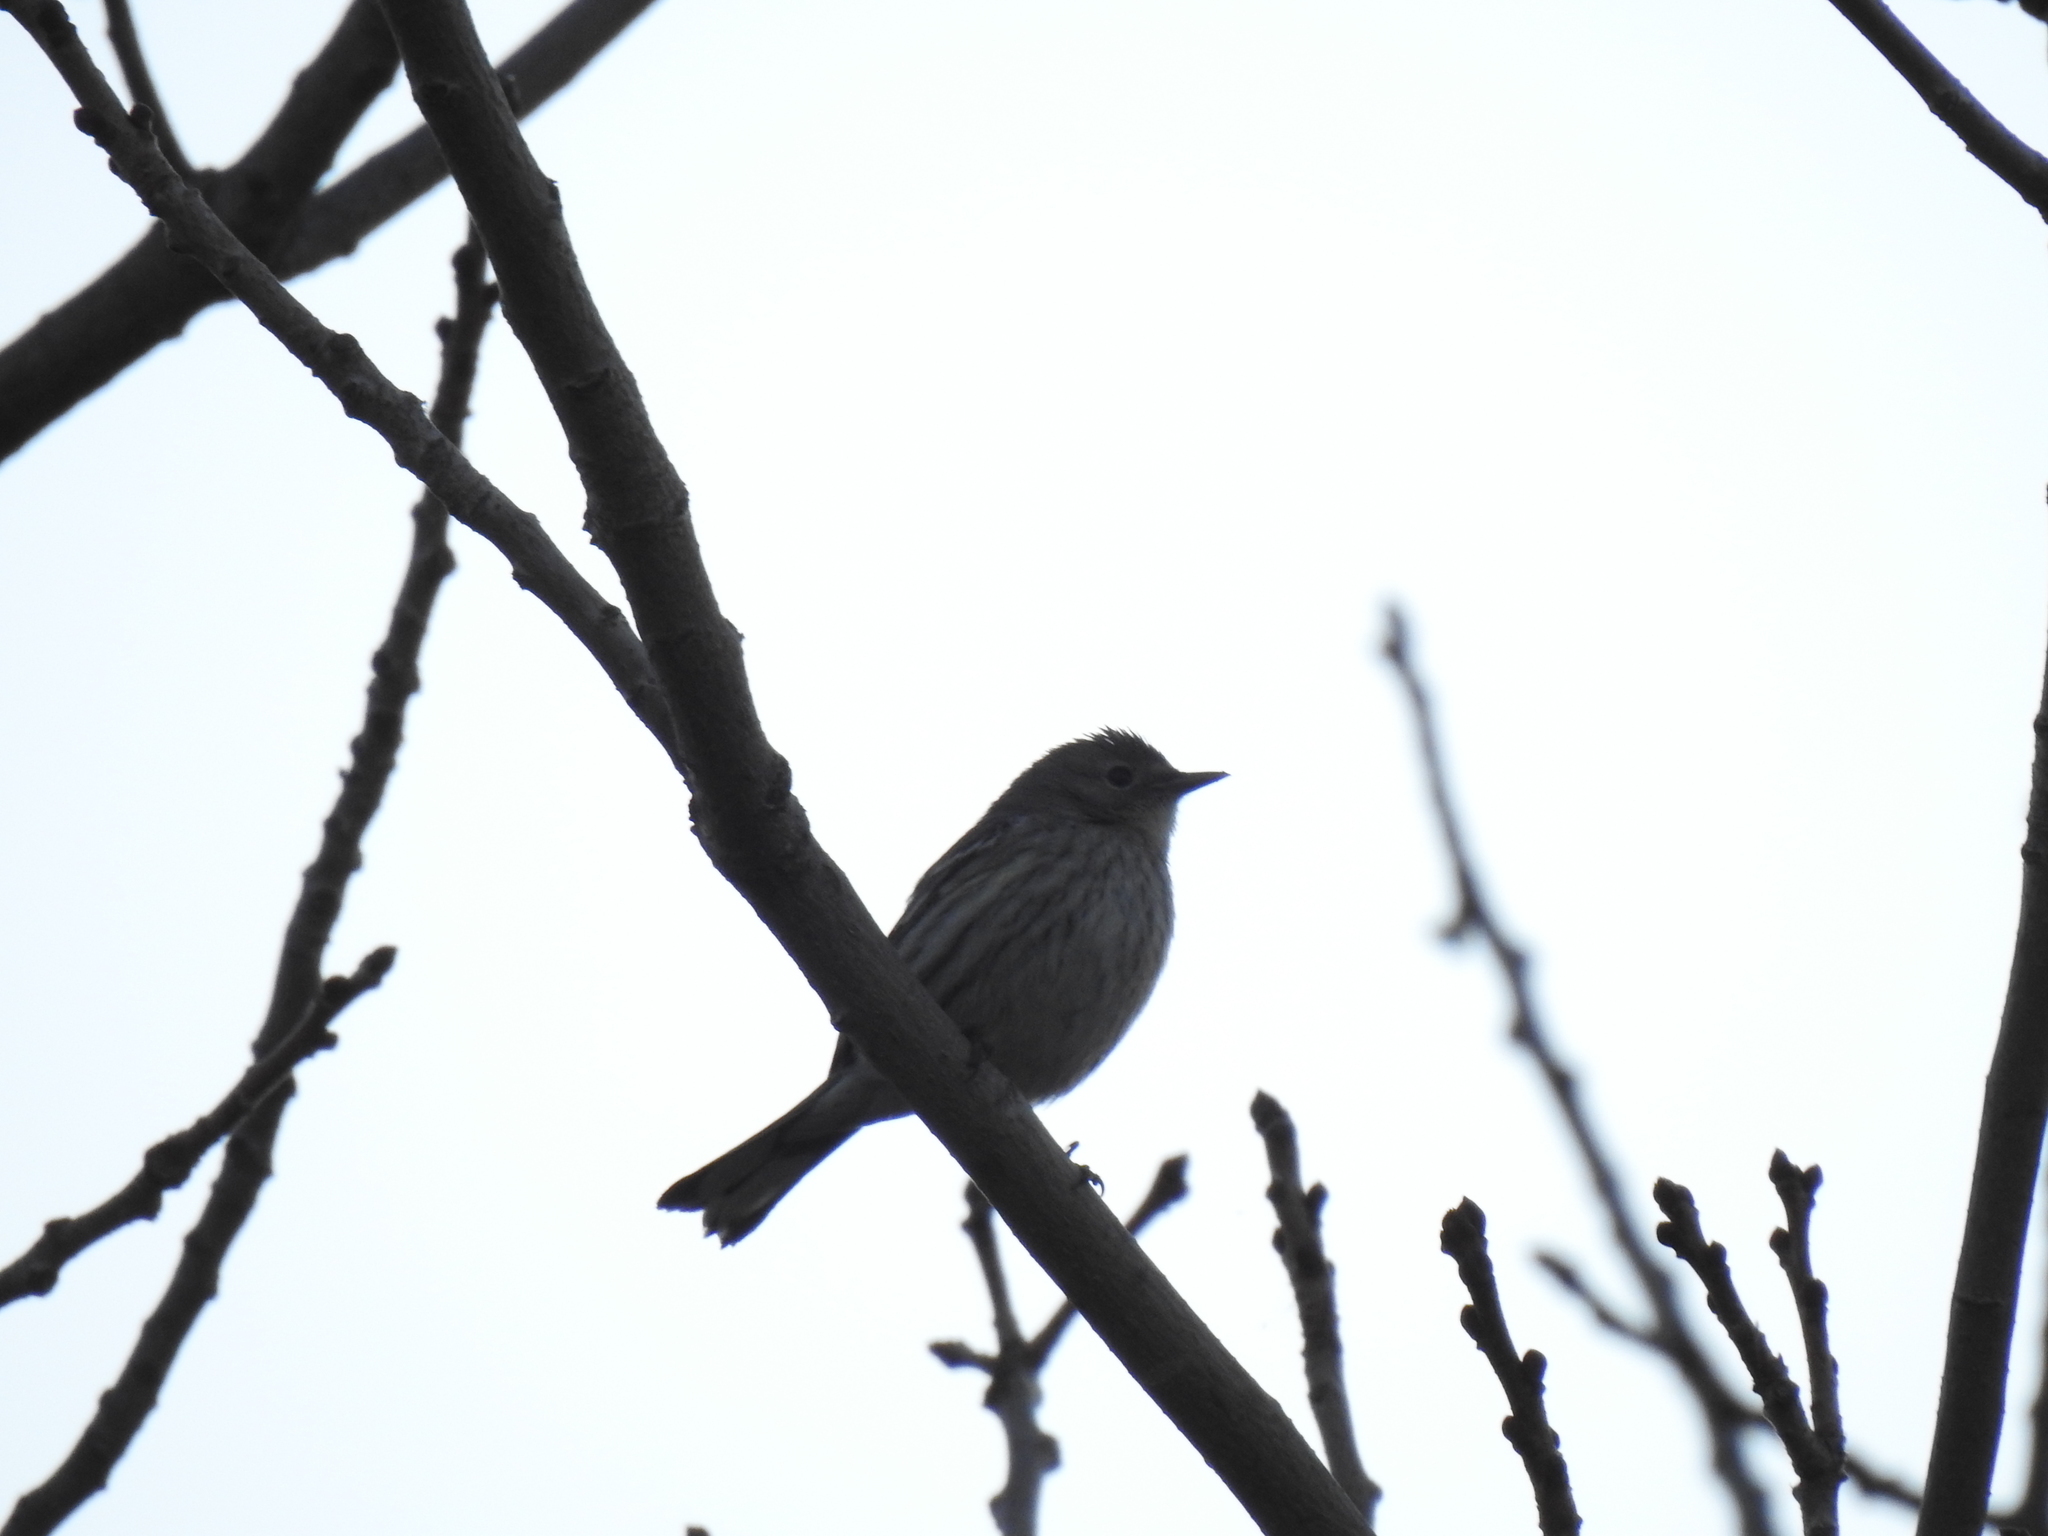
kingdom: Animalia
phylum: Chordata
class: Aves
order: Passeriformes
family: Parulidae
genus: Setophaga
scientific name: Setophaga coronata
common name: Myrtle warbler
